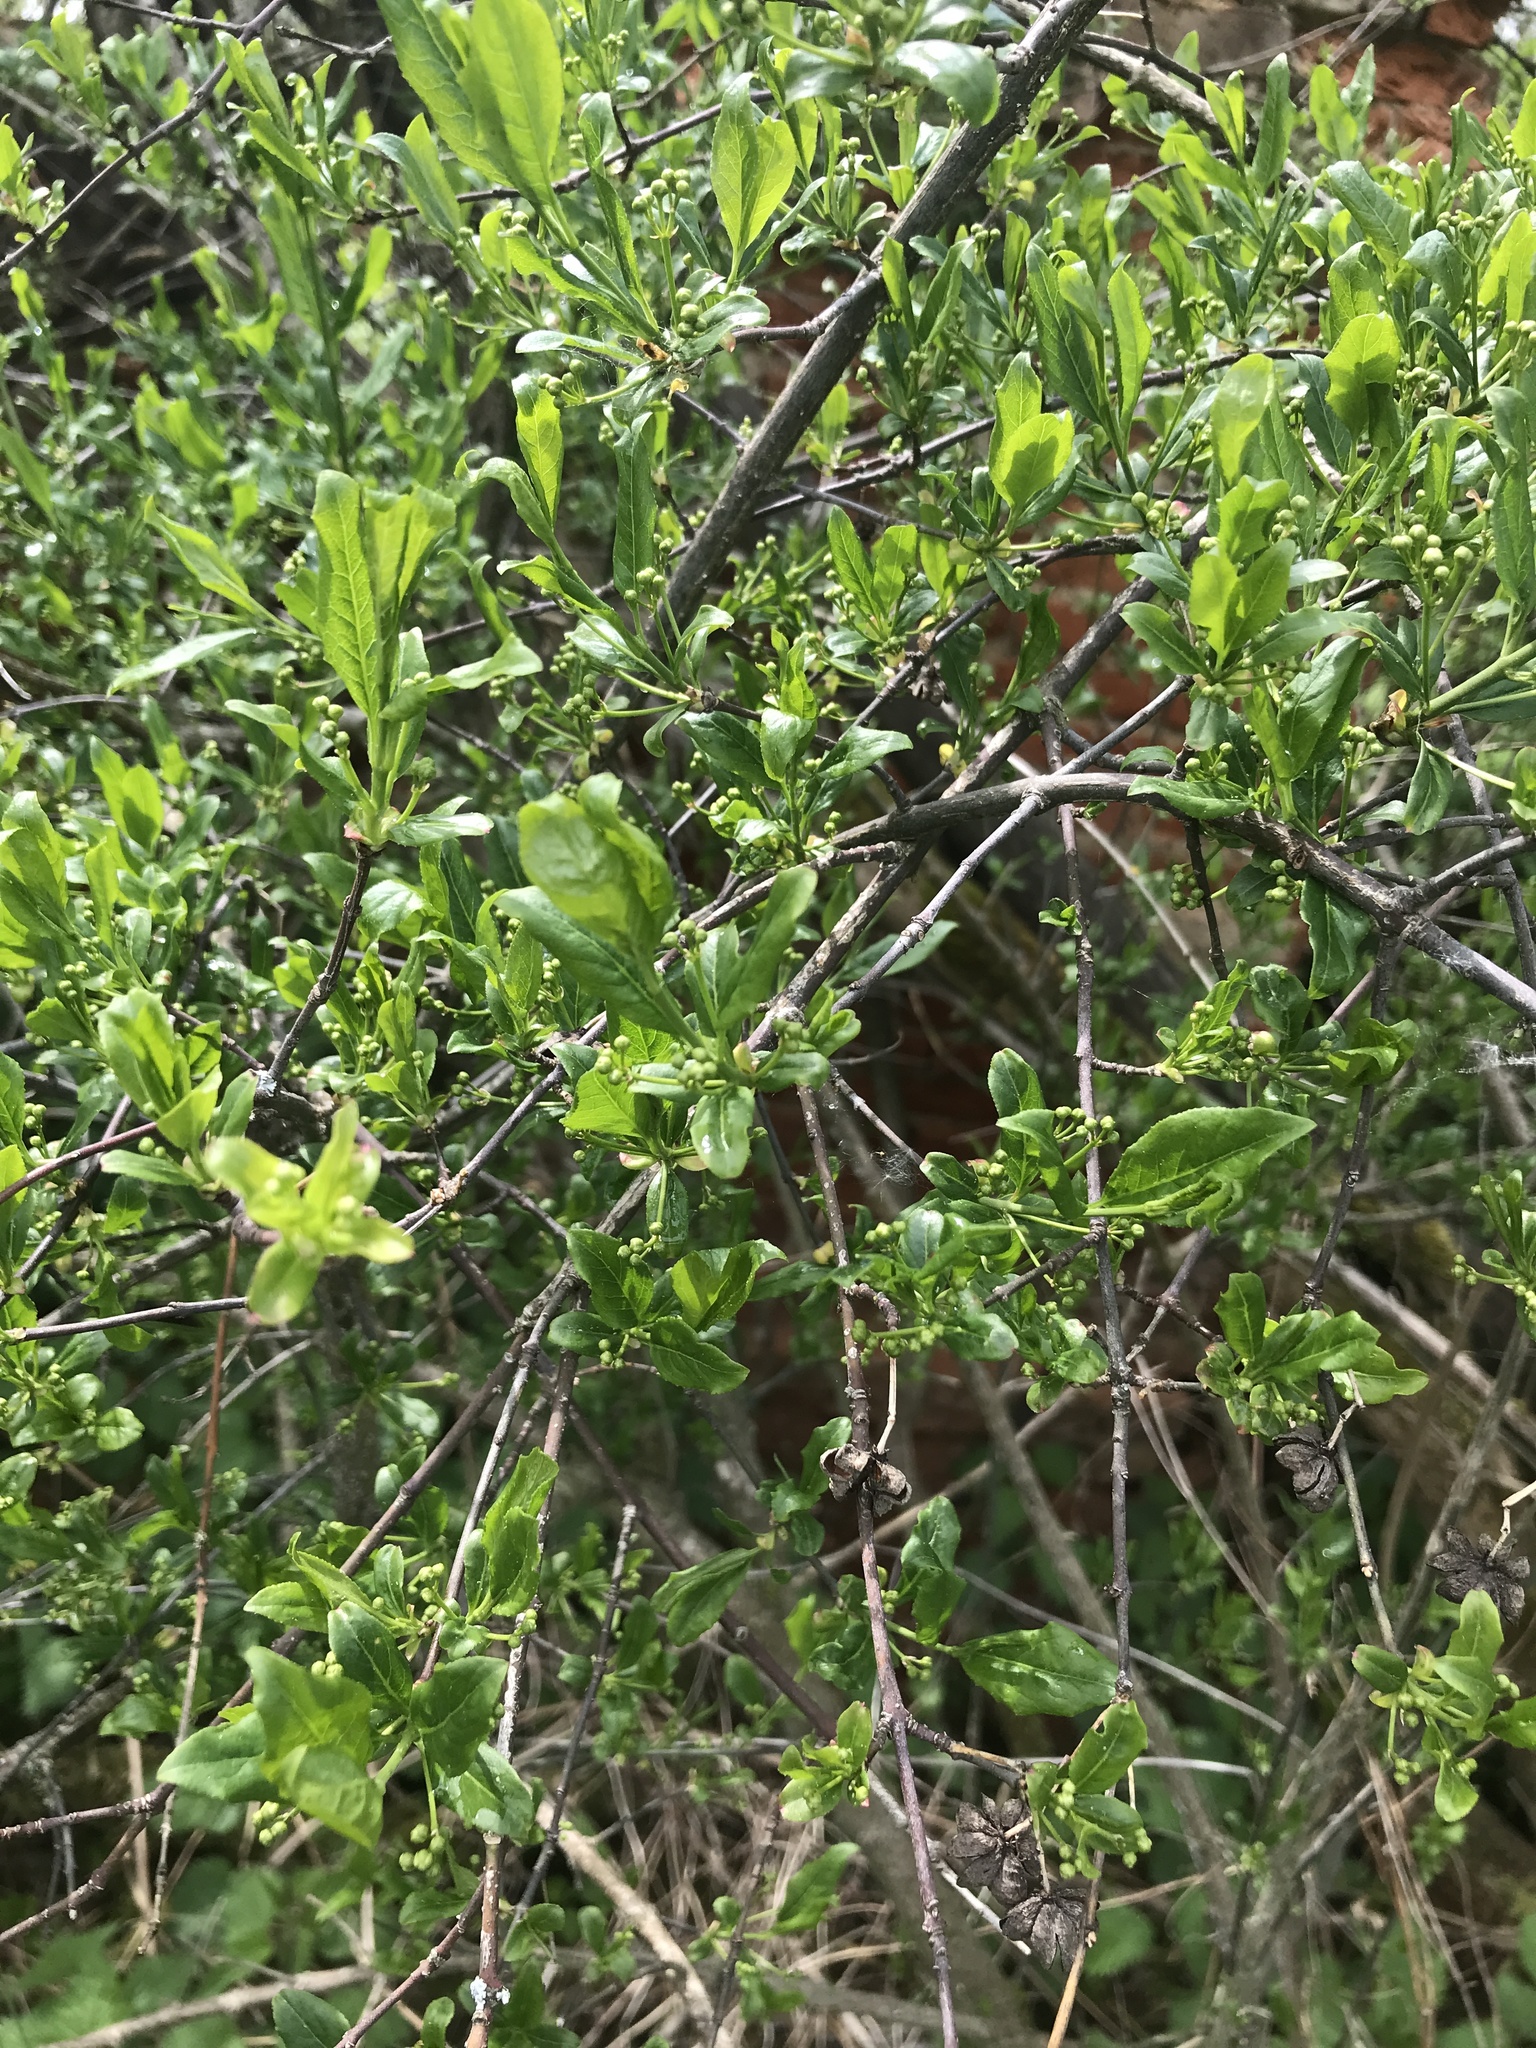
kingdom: Plantae
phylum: Tracheophyta
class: Magnoliopsida
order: Celastrales
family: Celastraceae
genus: Euonymus
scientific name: Euonymus europaeus
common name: Spindle
